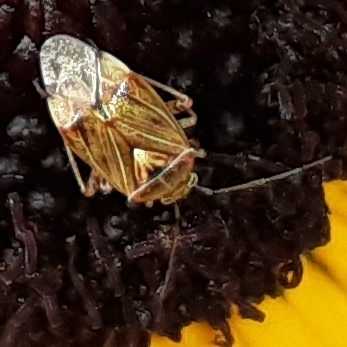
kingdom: Animalia
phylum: Arthropoda
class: Insecta
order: Hemiptera
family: Miridae
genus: Lygus
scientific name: Lygus lineolaris
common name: North american tarnished plant bug
